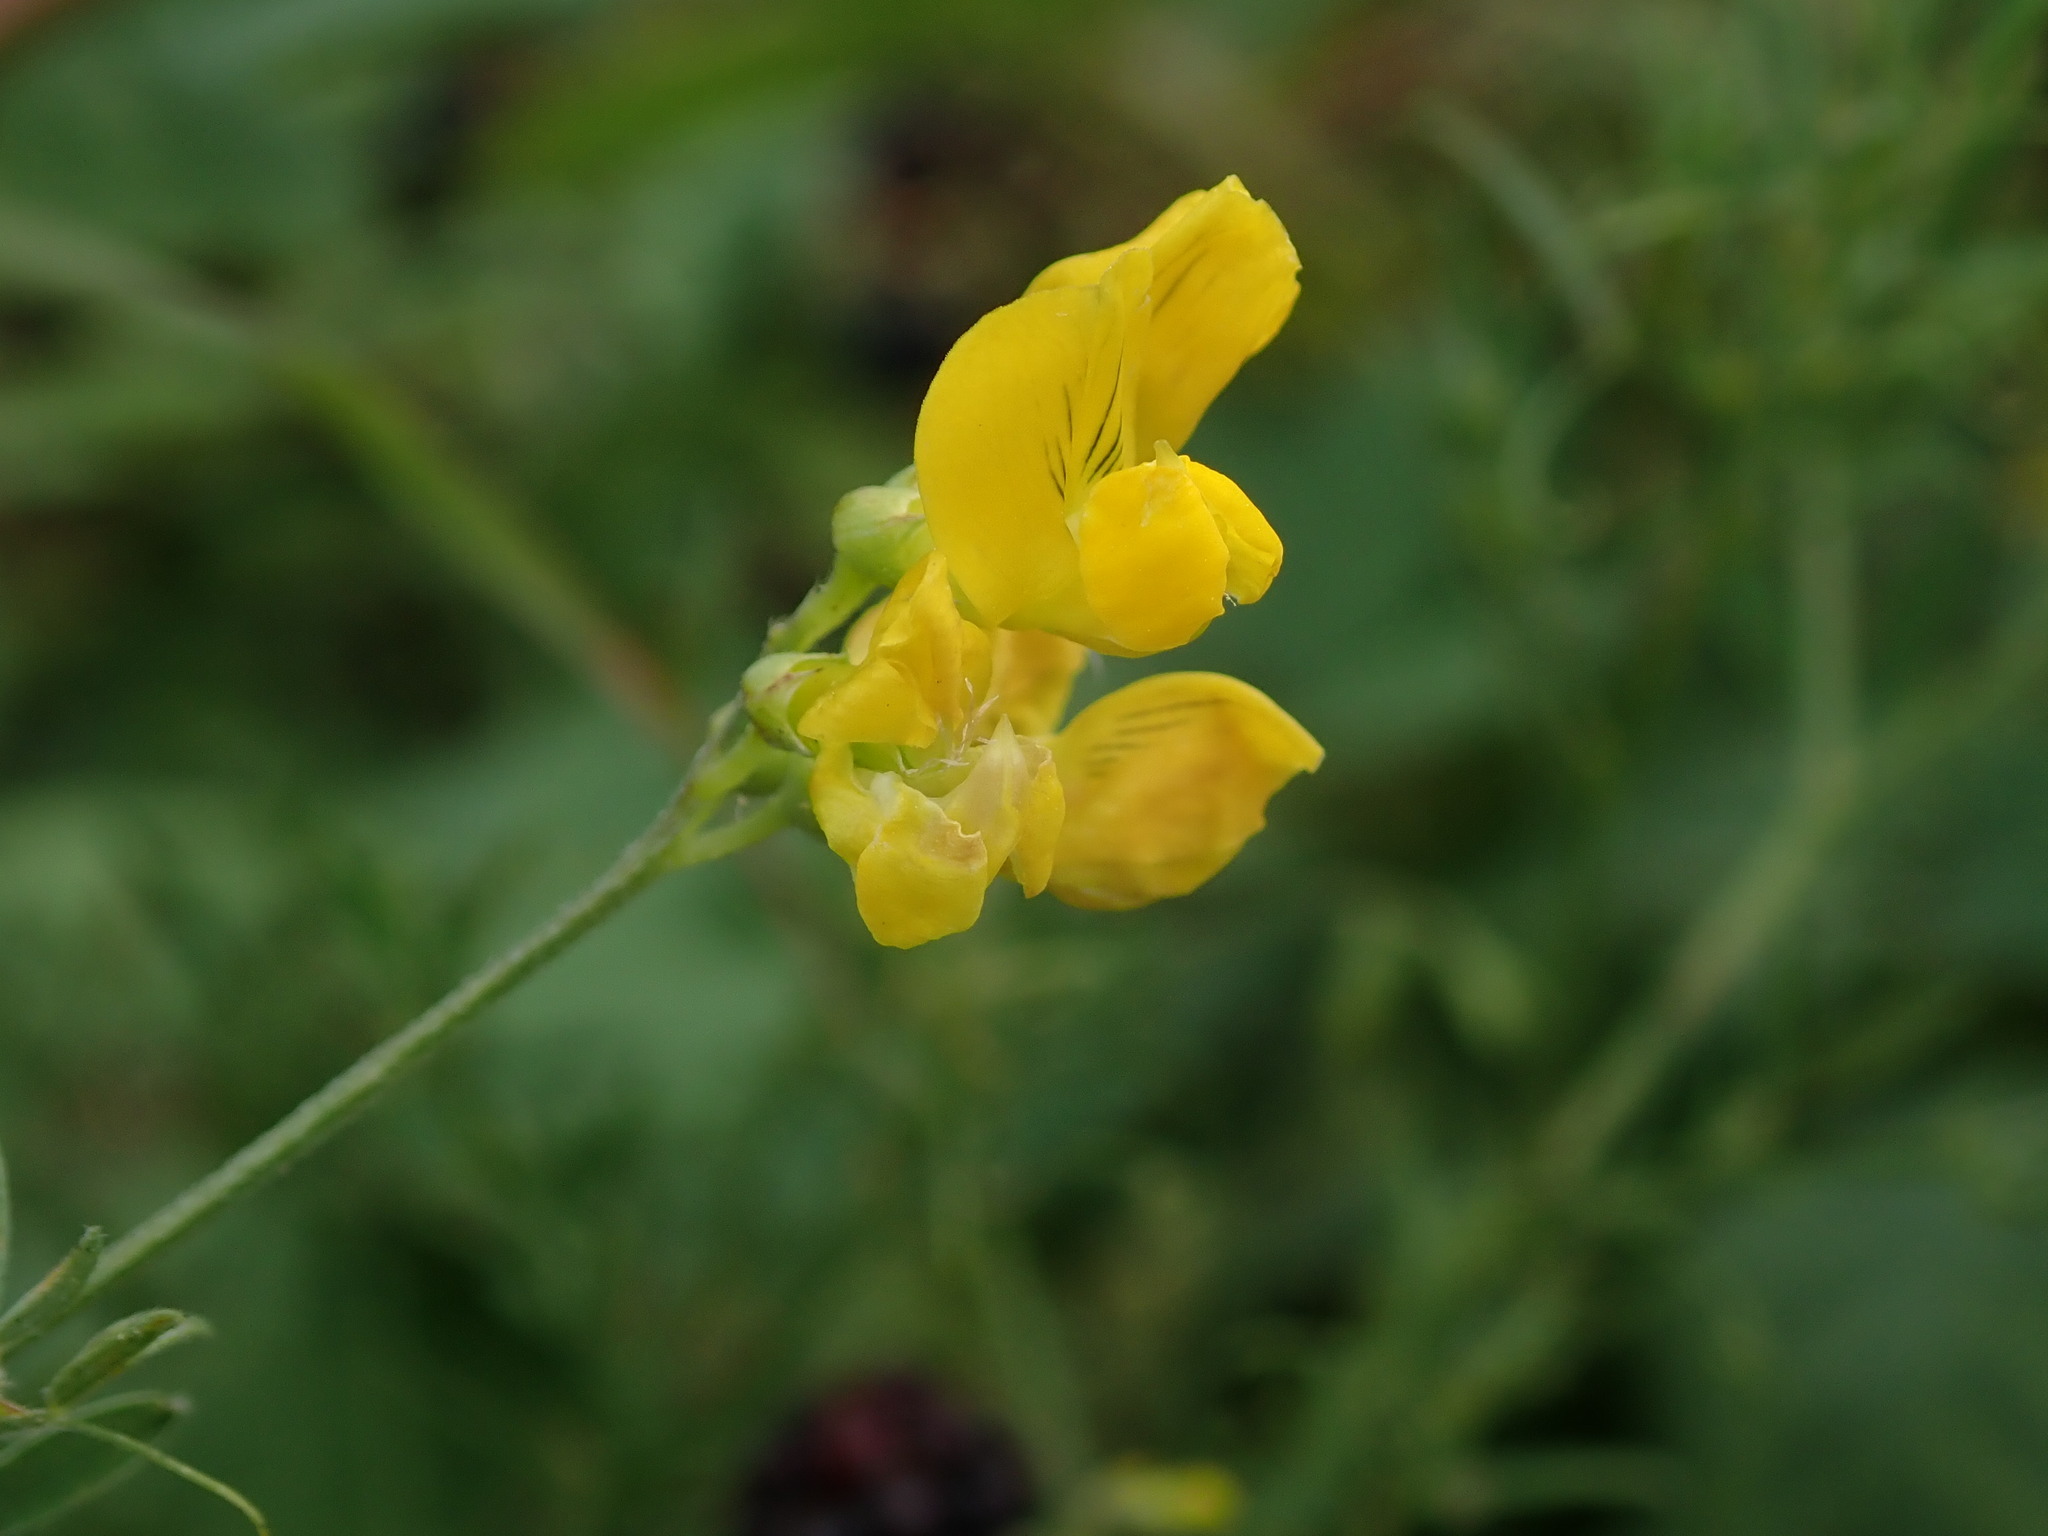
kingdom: Plantae
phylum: Tracheophyta
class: Magnoliopsida
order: Fabales
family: Fabaceae
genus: Lathyrus
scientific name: Lathyrus pratensis
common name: Meadow vetchling
